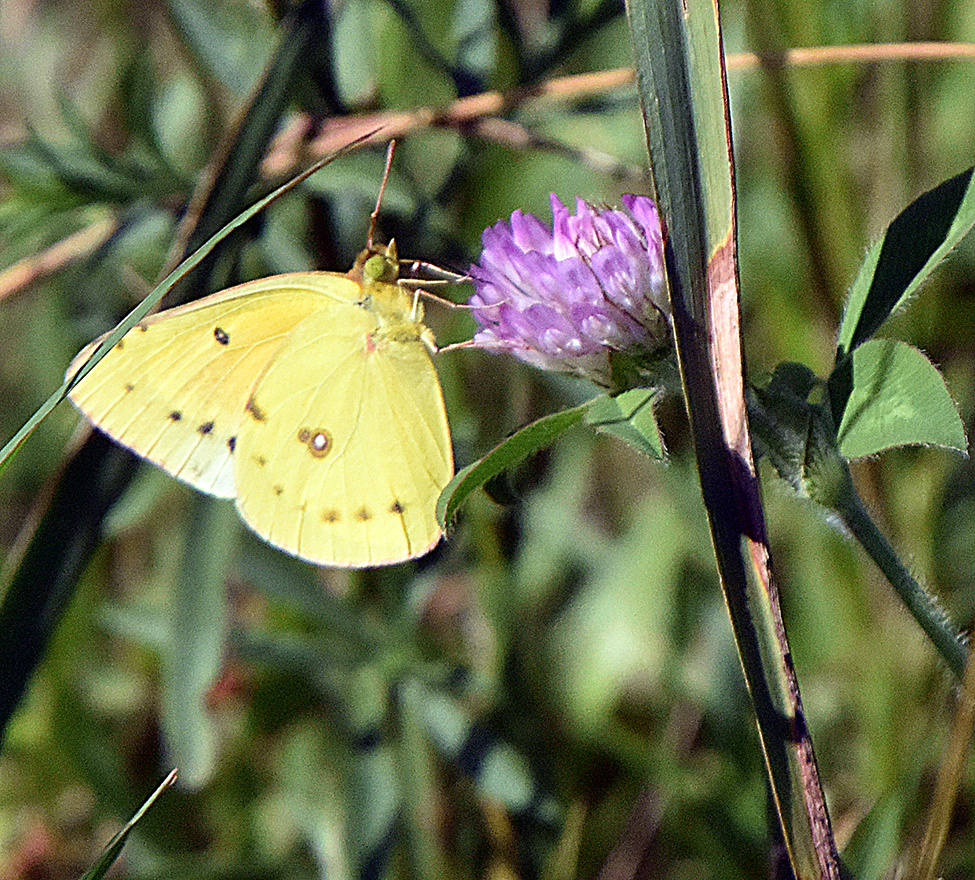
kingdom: Animalia
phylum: Arthropoda
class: Insecta
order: Lepidoptera
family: Pieridae
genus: Colias
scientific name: Colias eurytheme
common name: Alfalfa butterfly
